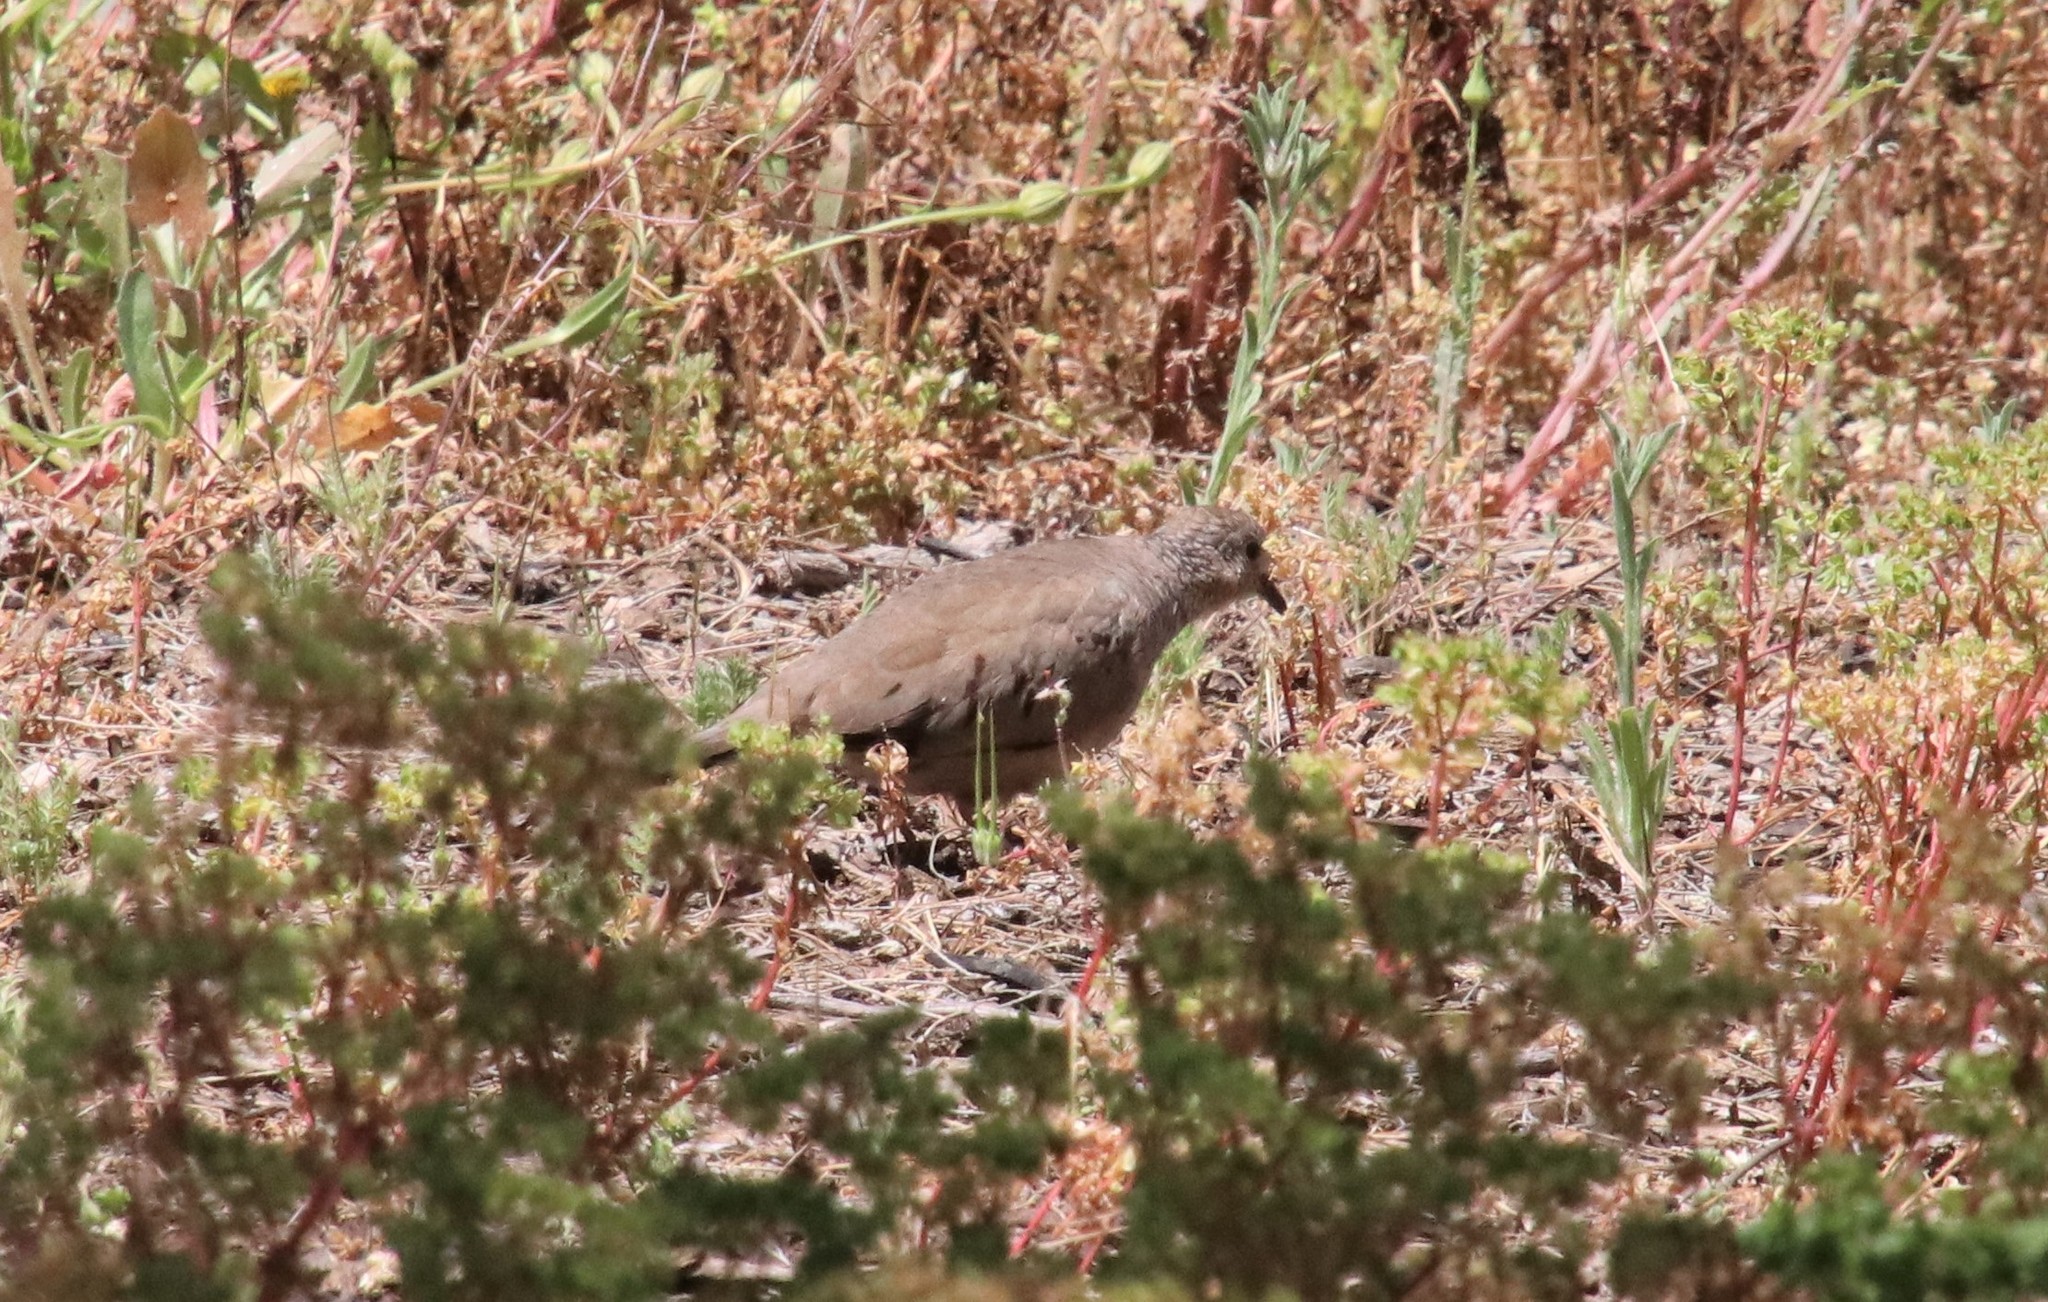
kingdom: Animalia
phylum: Chordata
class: Aves
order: Columbiformes
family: Columbidae
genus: Columbina
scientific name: Columbina passerina
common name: Common ground-dove
